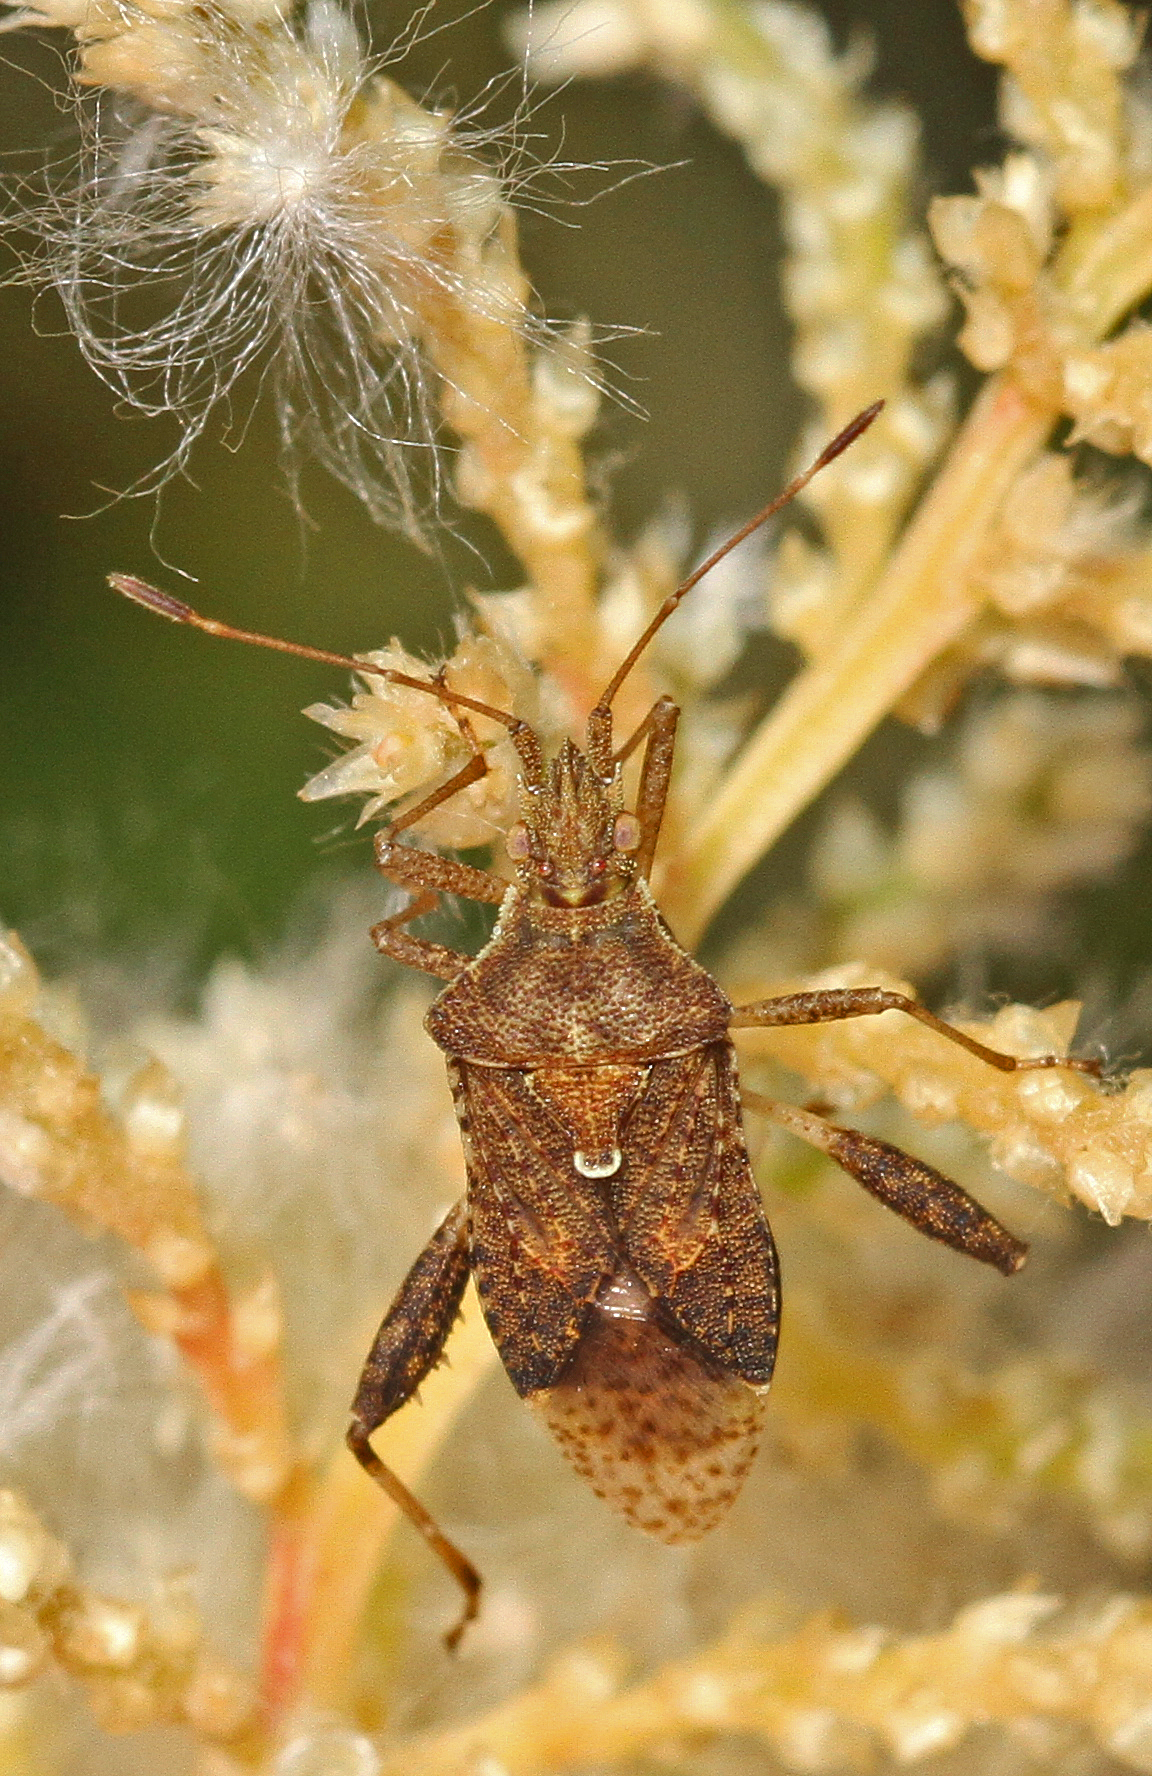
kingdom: Animalia
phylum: Arthropoda
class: Insecta
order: Hemiptera
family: Rhopalidae
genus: Harmostes
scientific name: Harmostes serratus
